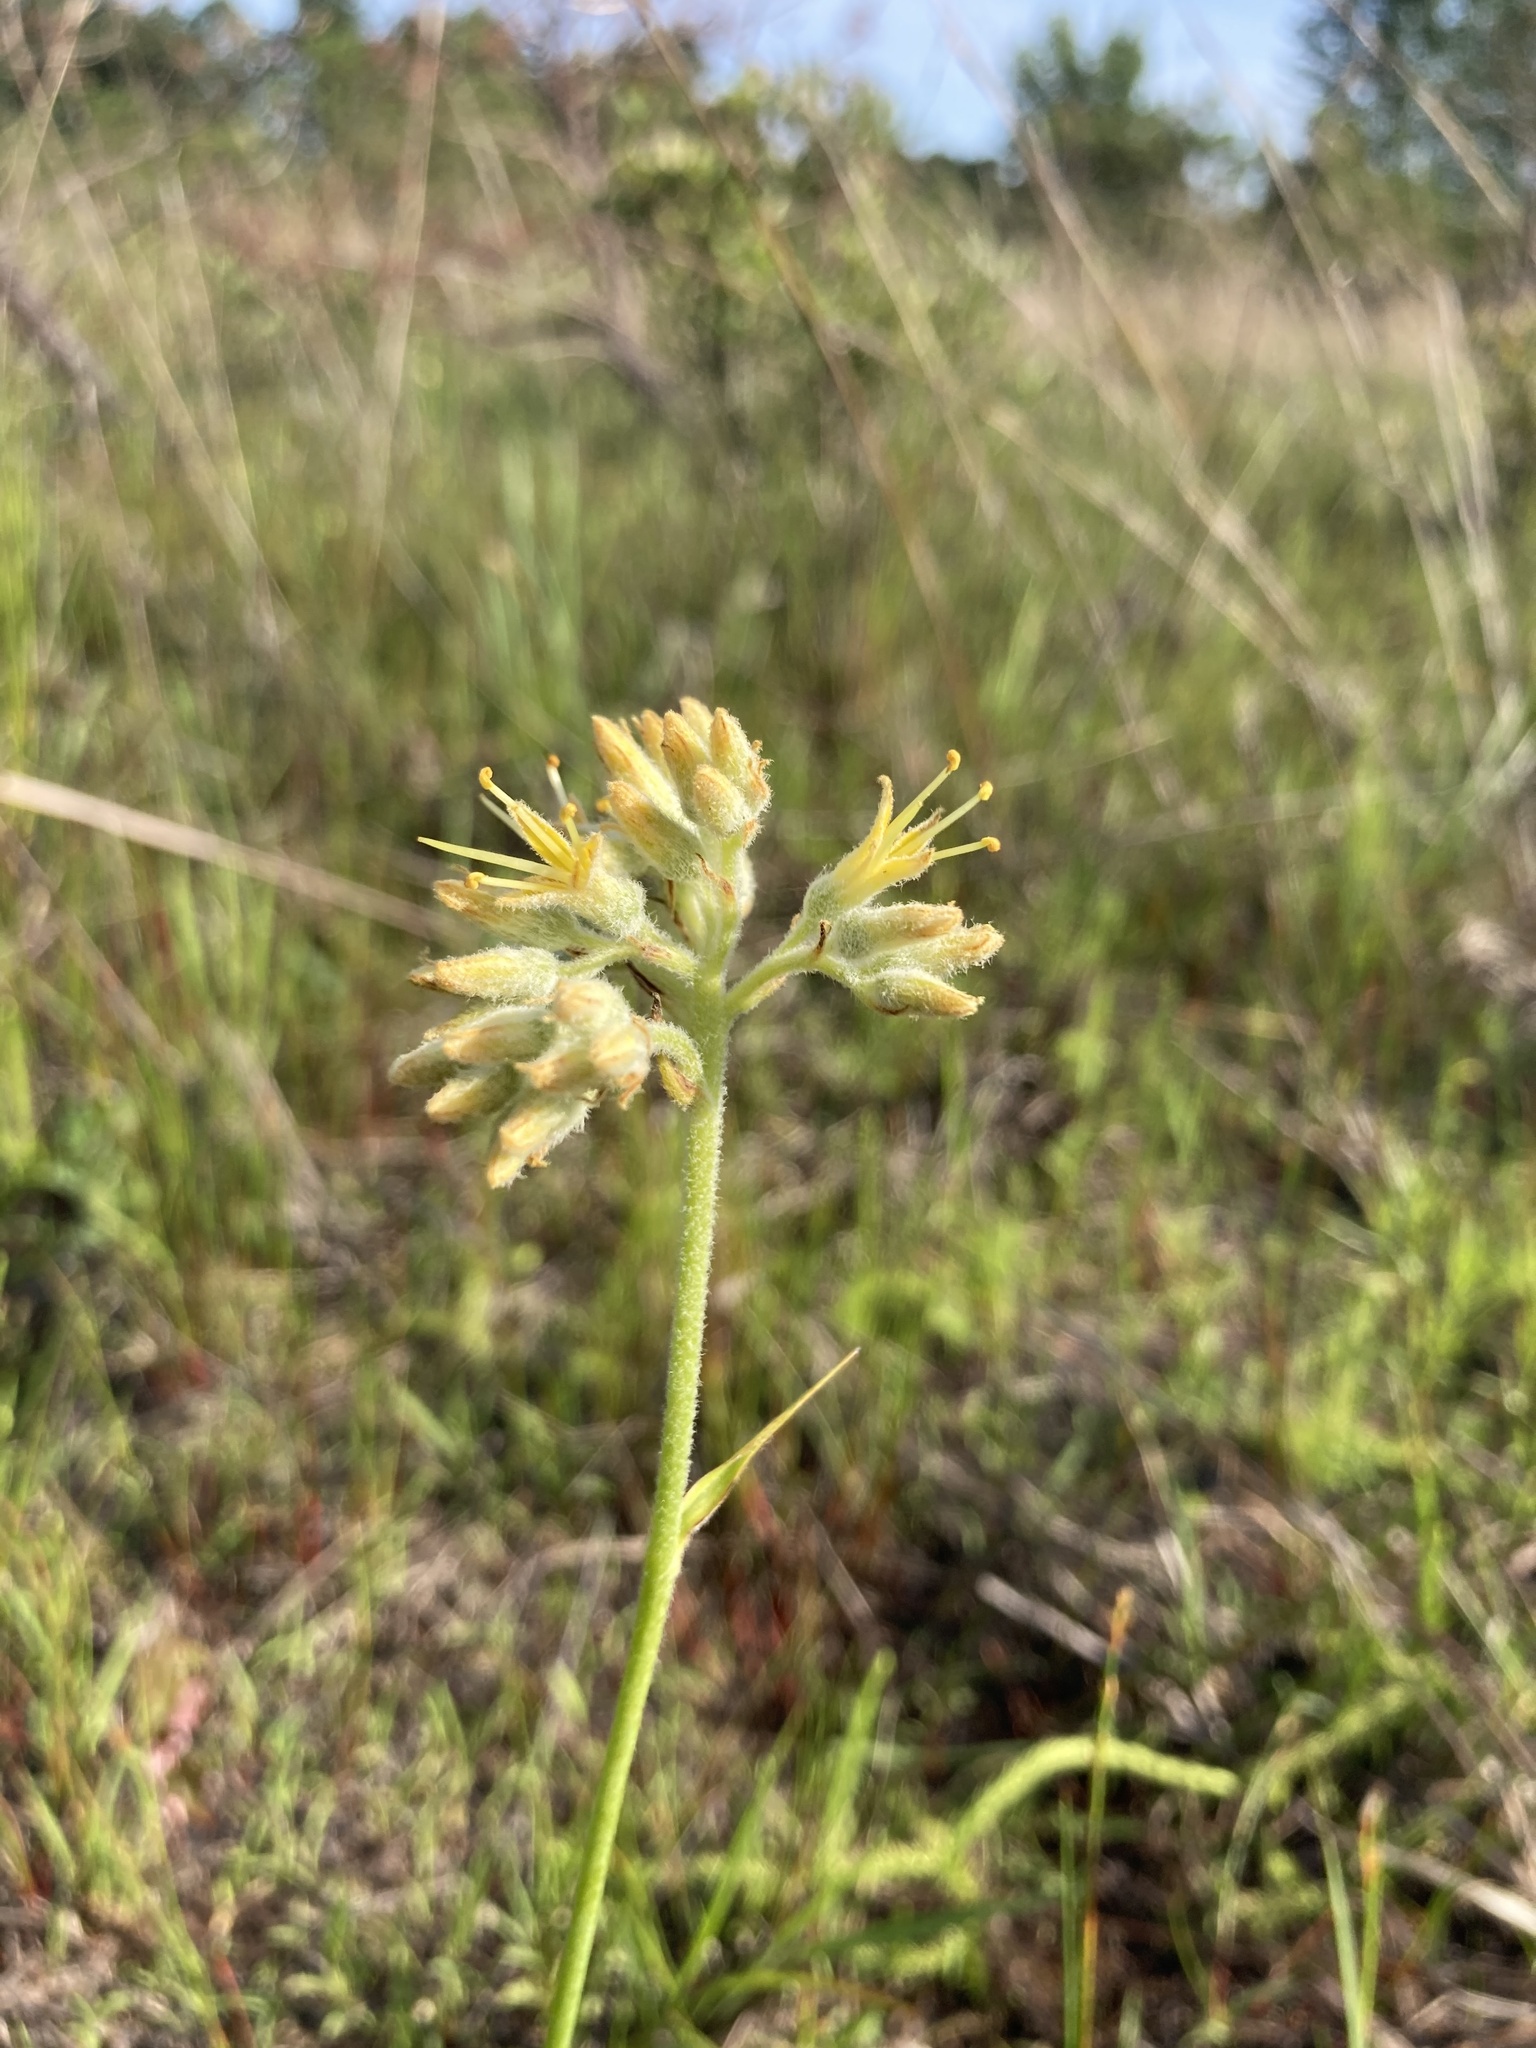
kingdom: Plantae
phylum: Tracheophyta
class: Liliopsida
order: Commelinales
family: Haemodoraceae
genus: Lachnanthes
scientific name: Lachnanthes caroliana
